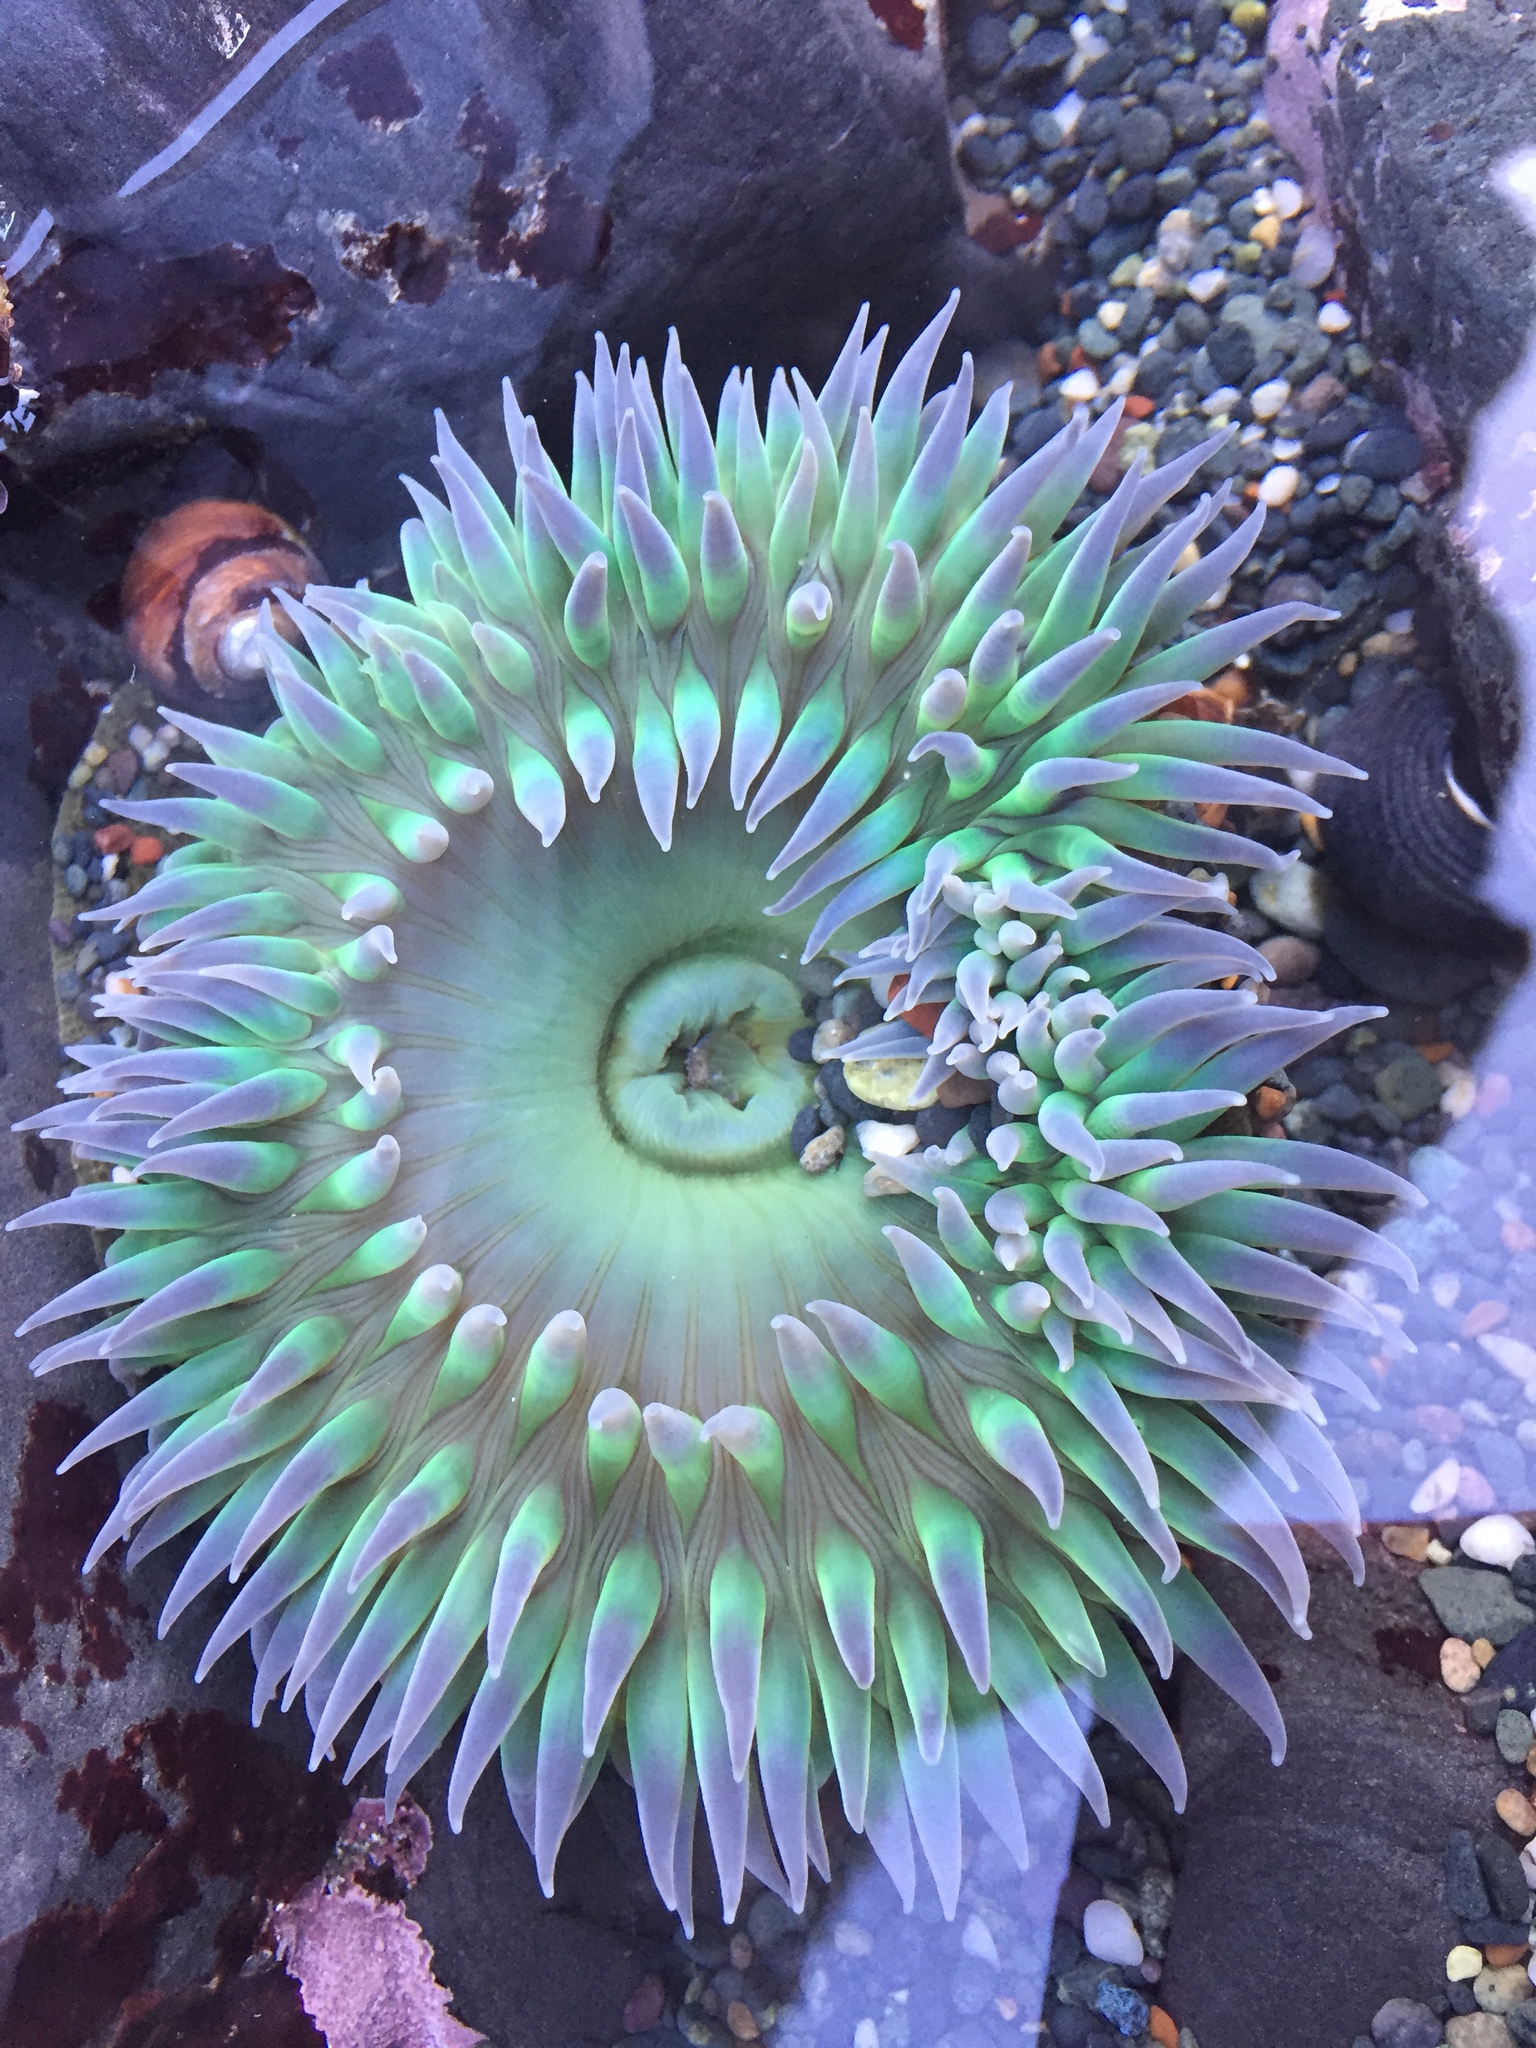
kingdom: Animalia
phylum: Cnidaria
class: Anthozoa
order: Actiniaria
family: Actiniidae
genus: Anthopleura
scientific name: Anthopleura xanthogrammica
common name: Giant green anemone
